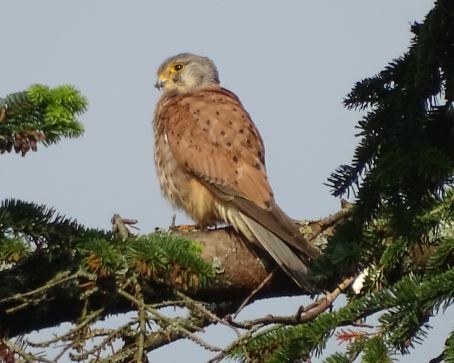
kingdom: Animalia
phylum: Chordata
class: Aves
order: Falconiformes
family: Falconidae
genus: Falco
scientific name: Falco tinnunculus
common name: Common kestrel
